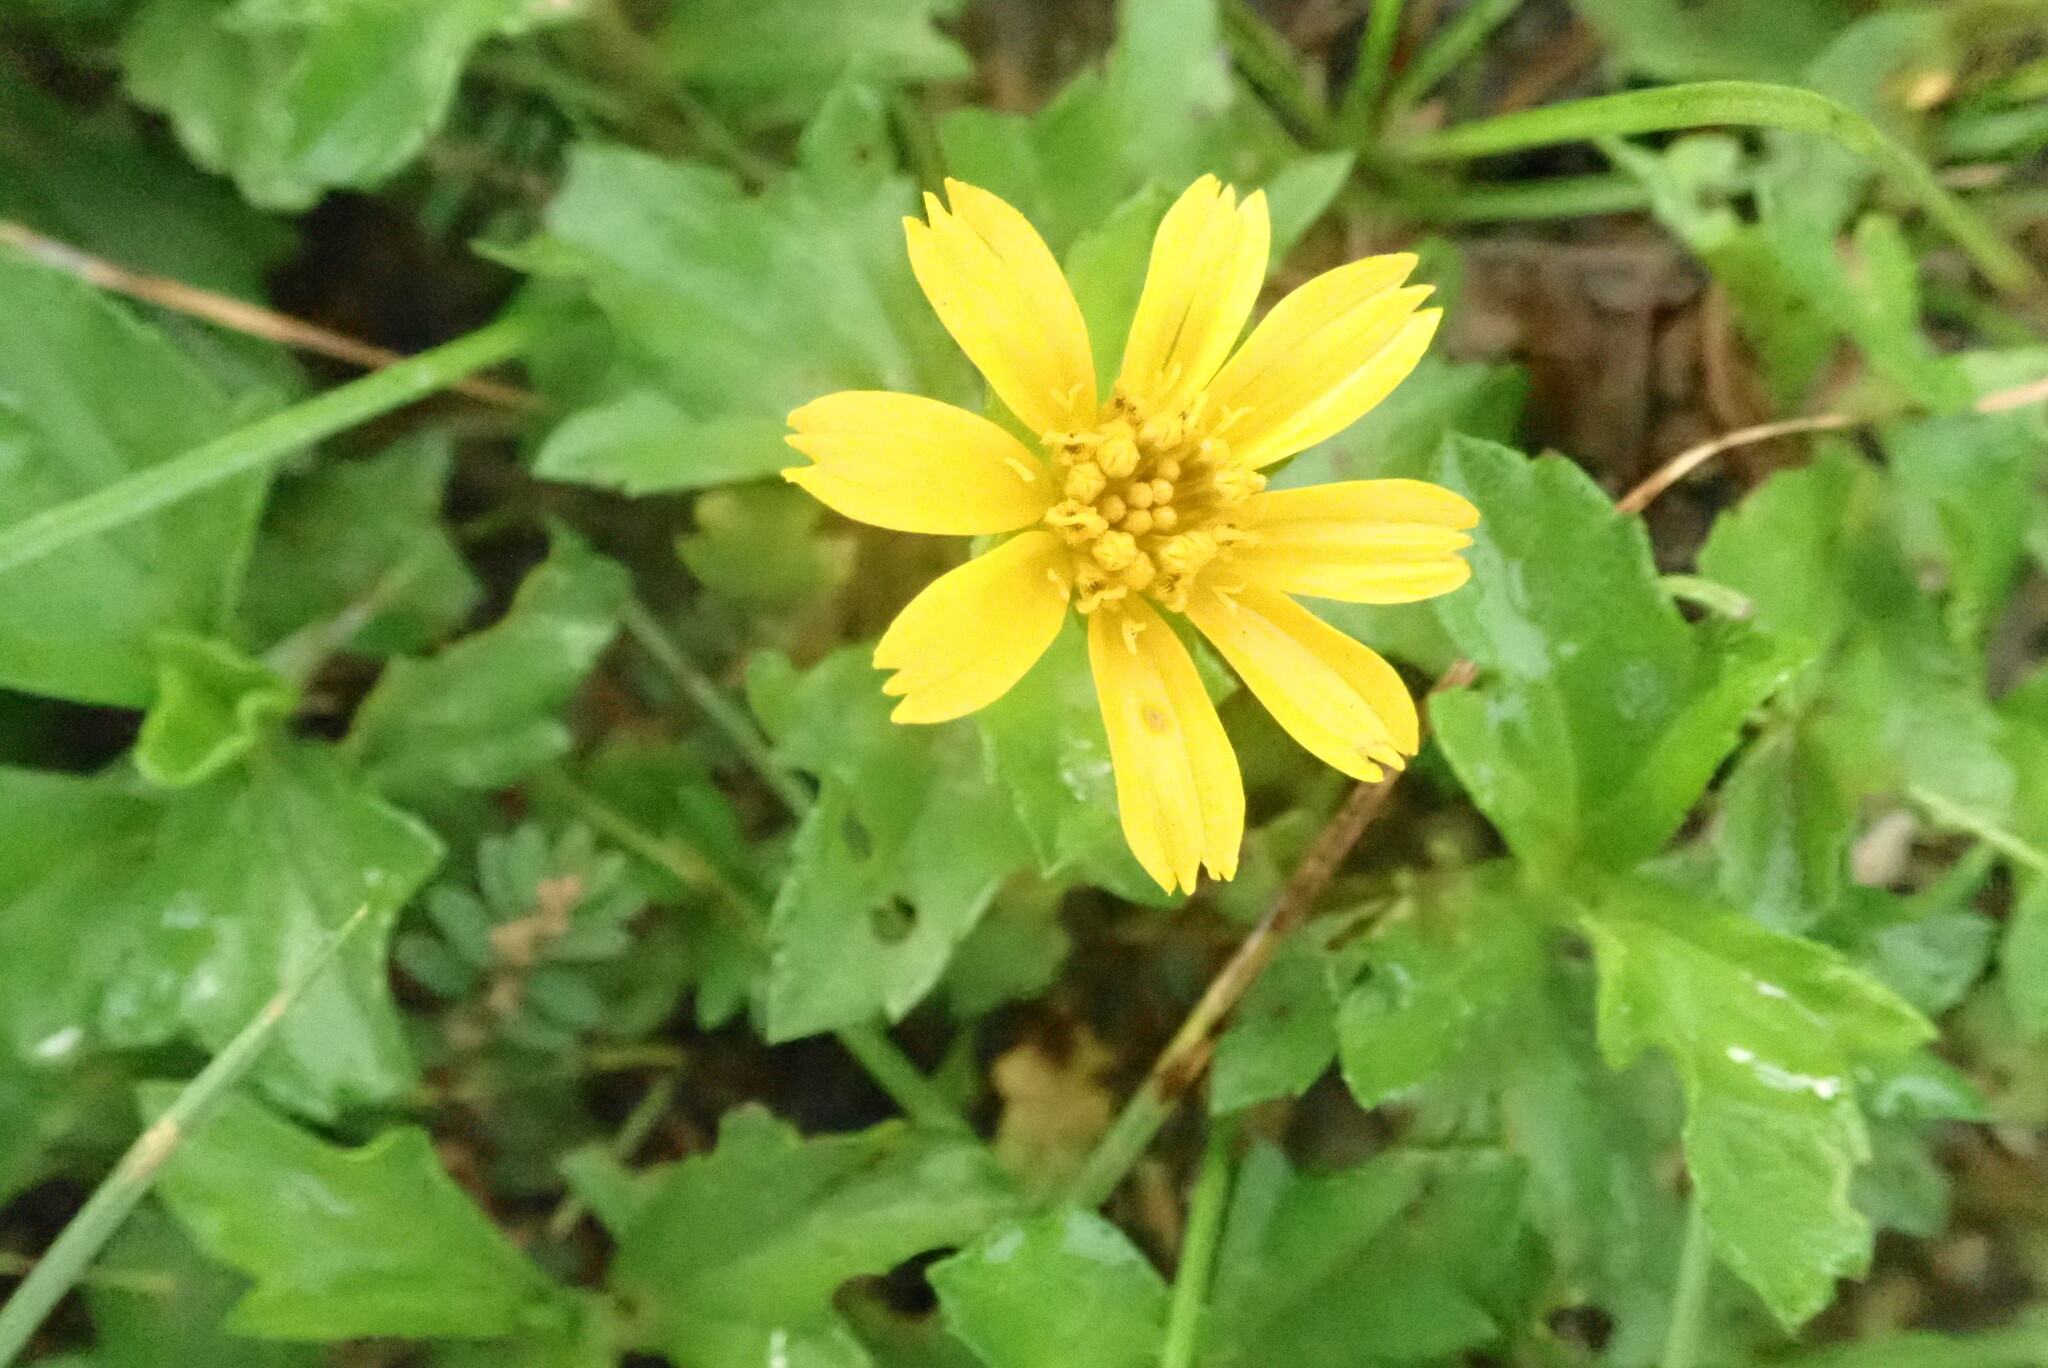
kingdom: Plantae
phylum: Tracheophyta
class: Magnoliopsida
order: Asterales
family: Asteraceae
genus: Sphagneticola
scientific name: Sphagneticola trilobata
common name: Bay biscayne creeping-oxeye
